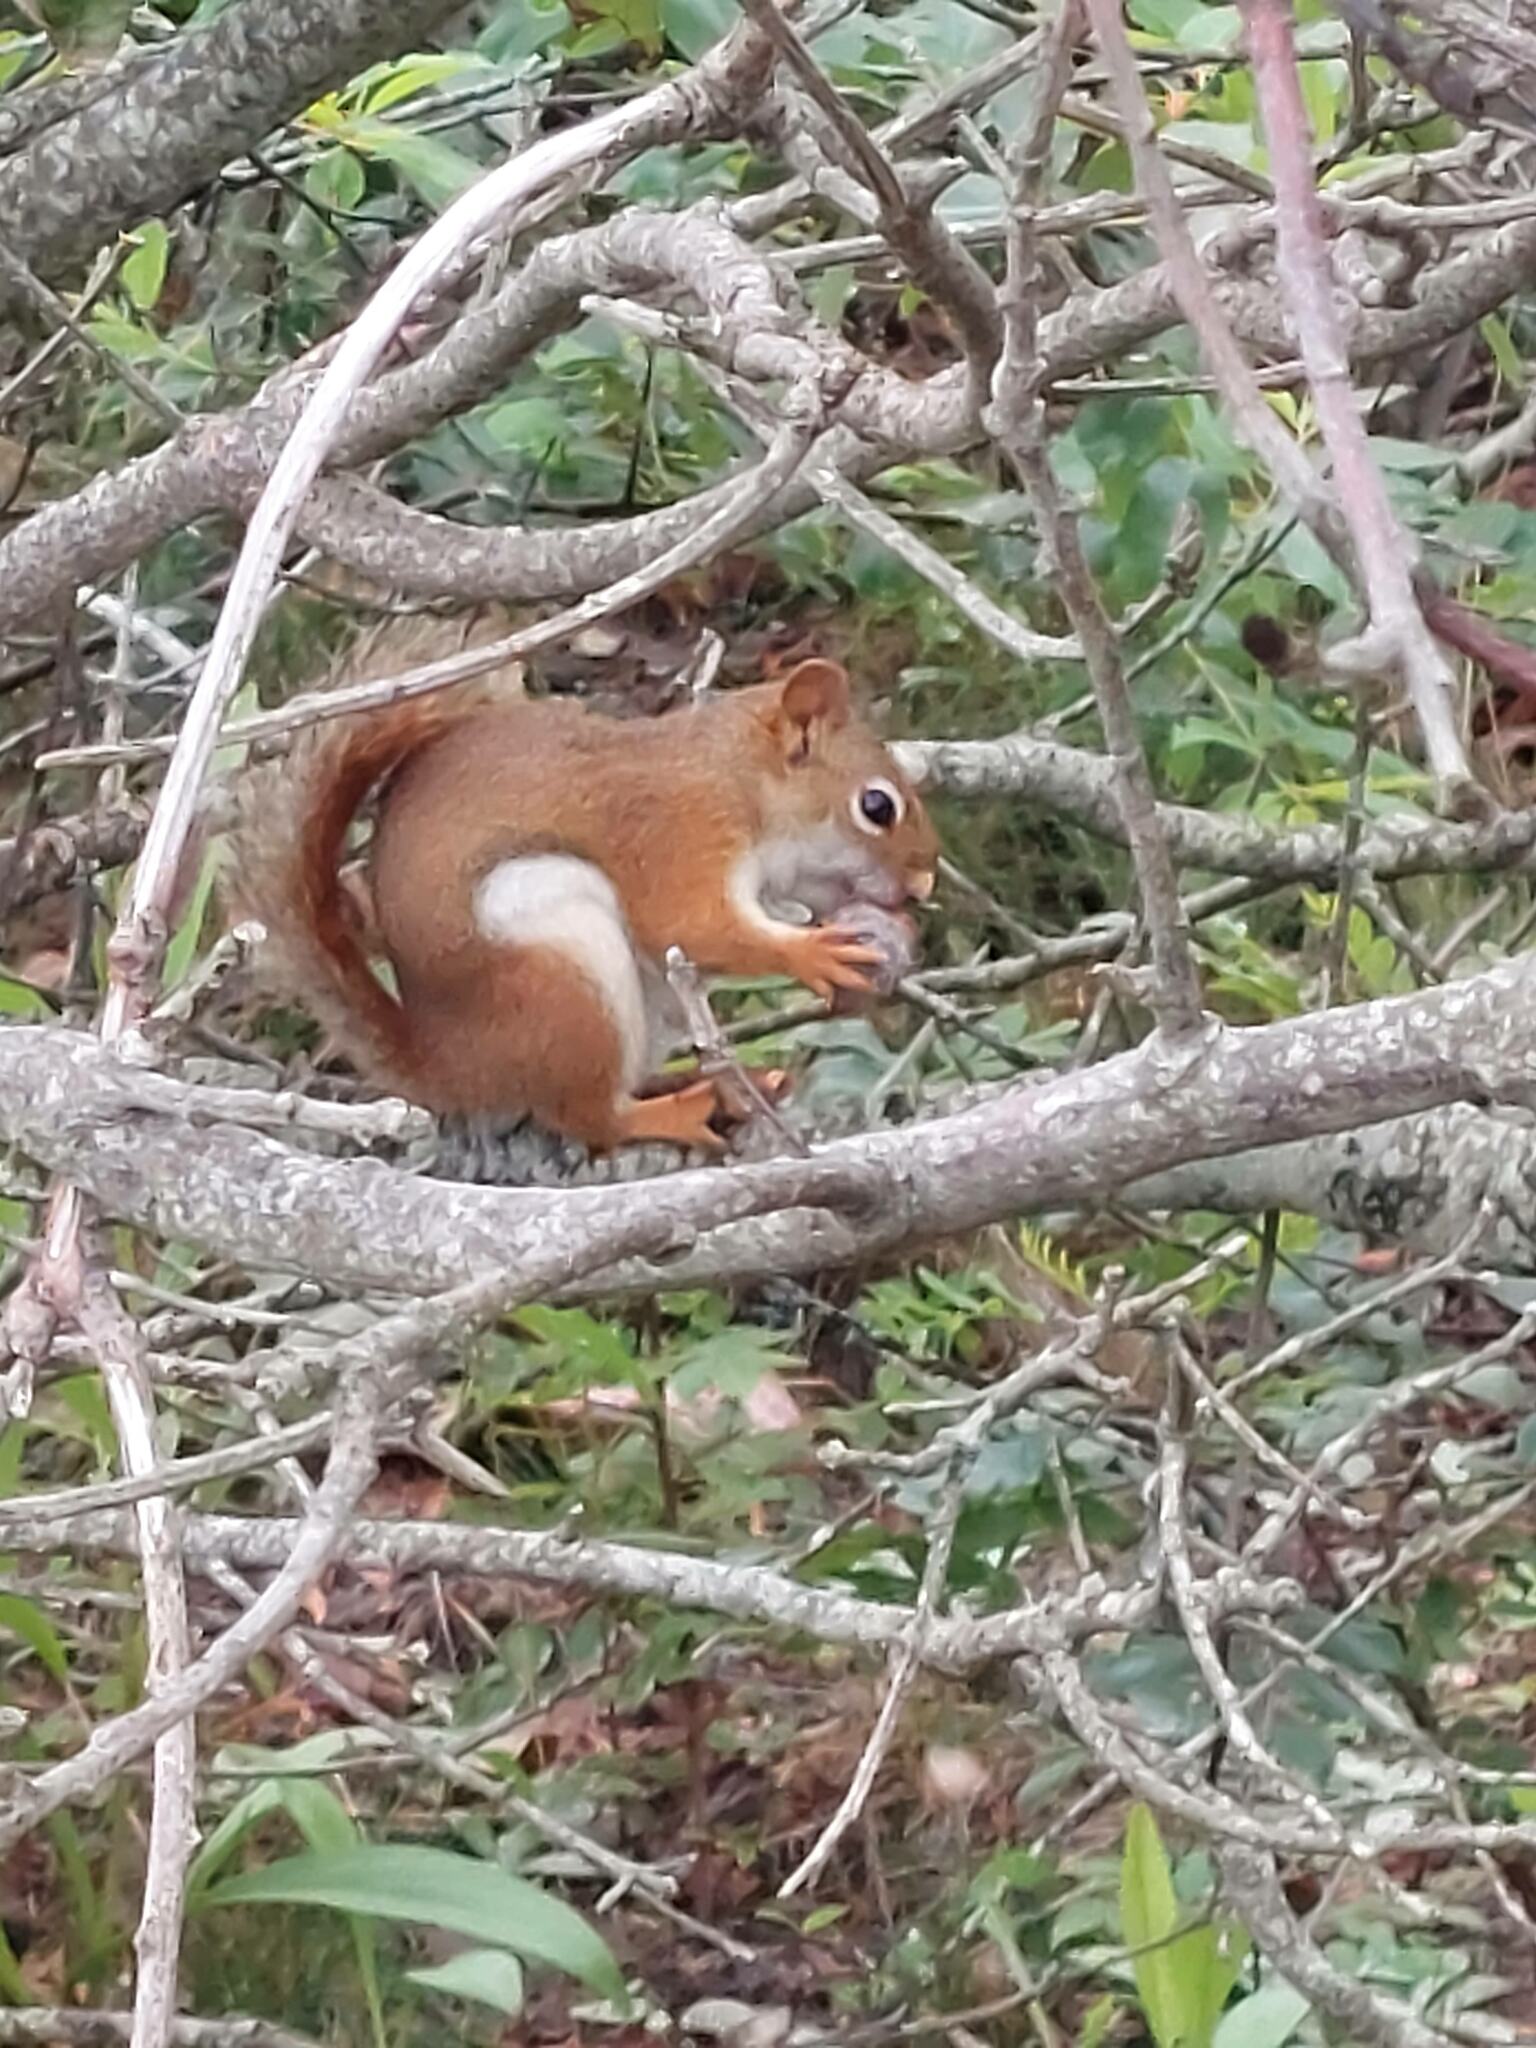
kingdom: Animalia
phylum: Chordata
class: Mammalia
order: Rodentia
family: Sciuridae
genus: Tamiasciurus
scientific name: Tamiasciurus hudsonicus
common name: Red squirrel
